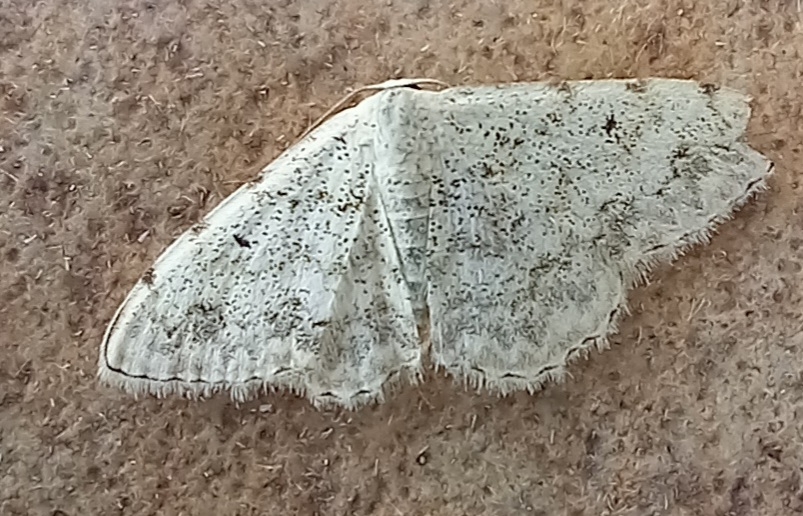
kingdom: Animalia
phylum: Arthropoda
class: Insecta
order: Lepidoptera
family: Geometridae
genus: Scopula
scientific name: Scopula submutata
